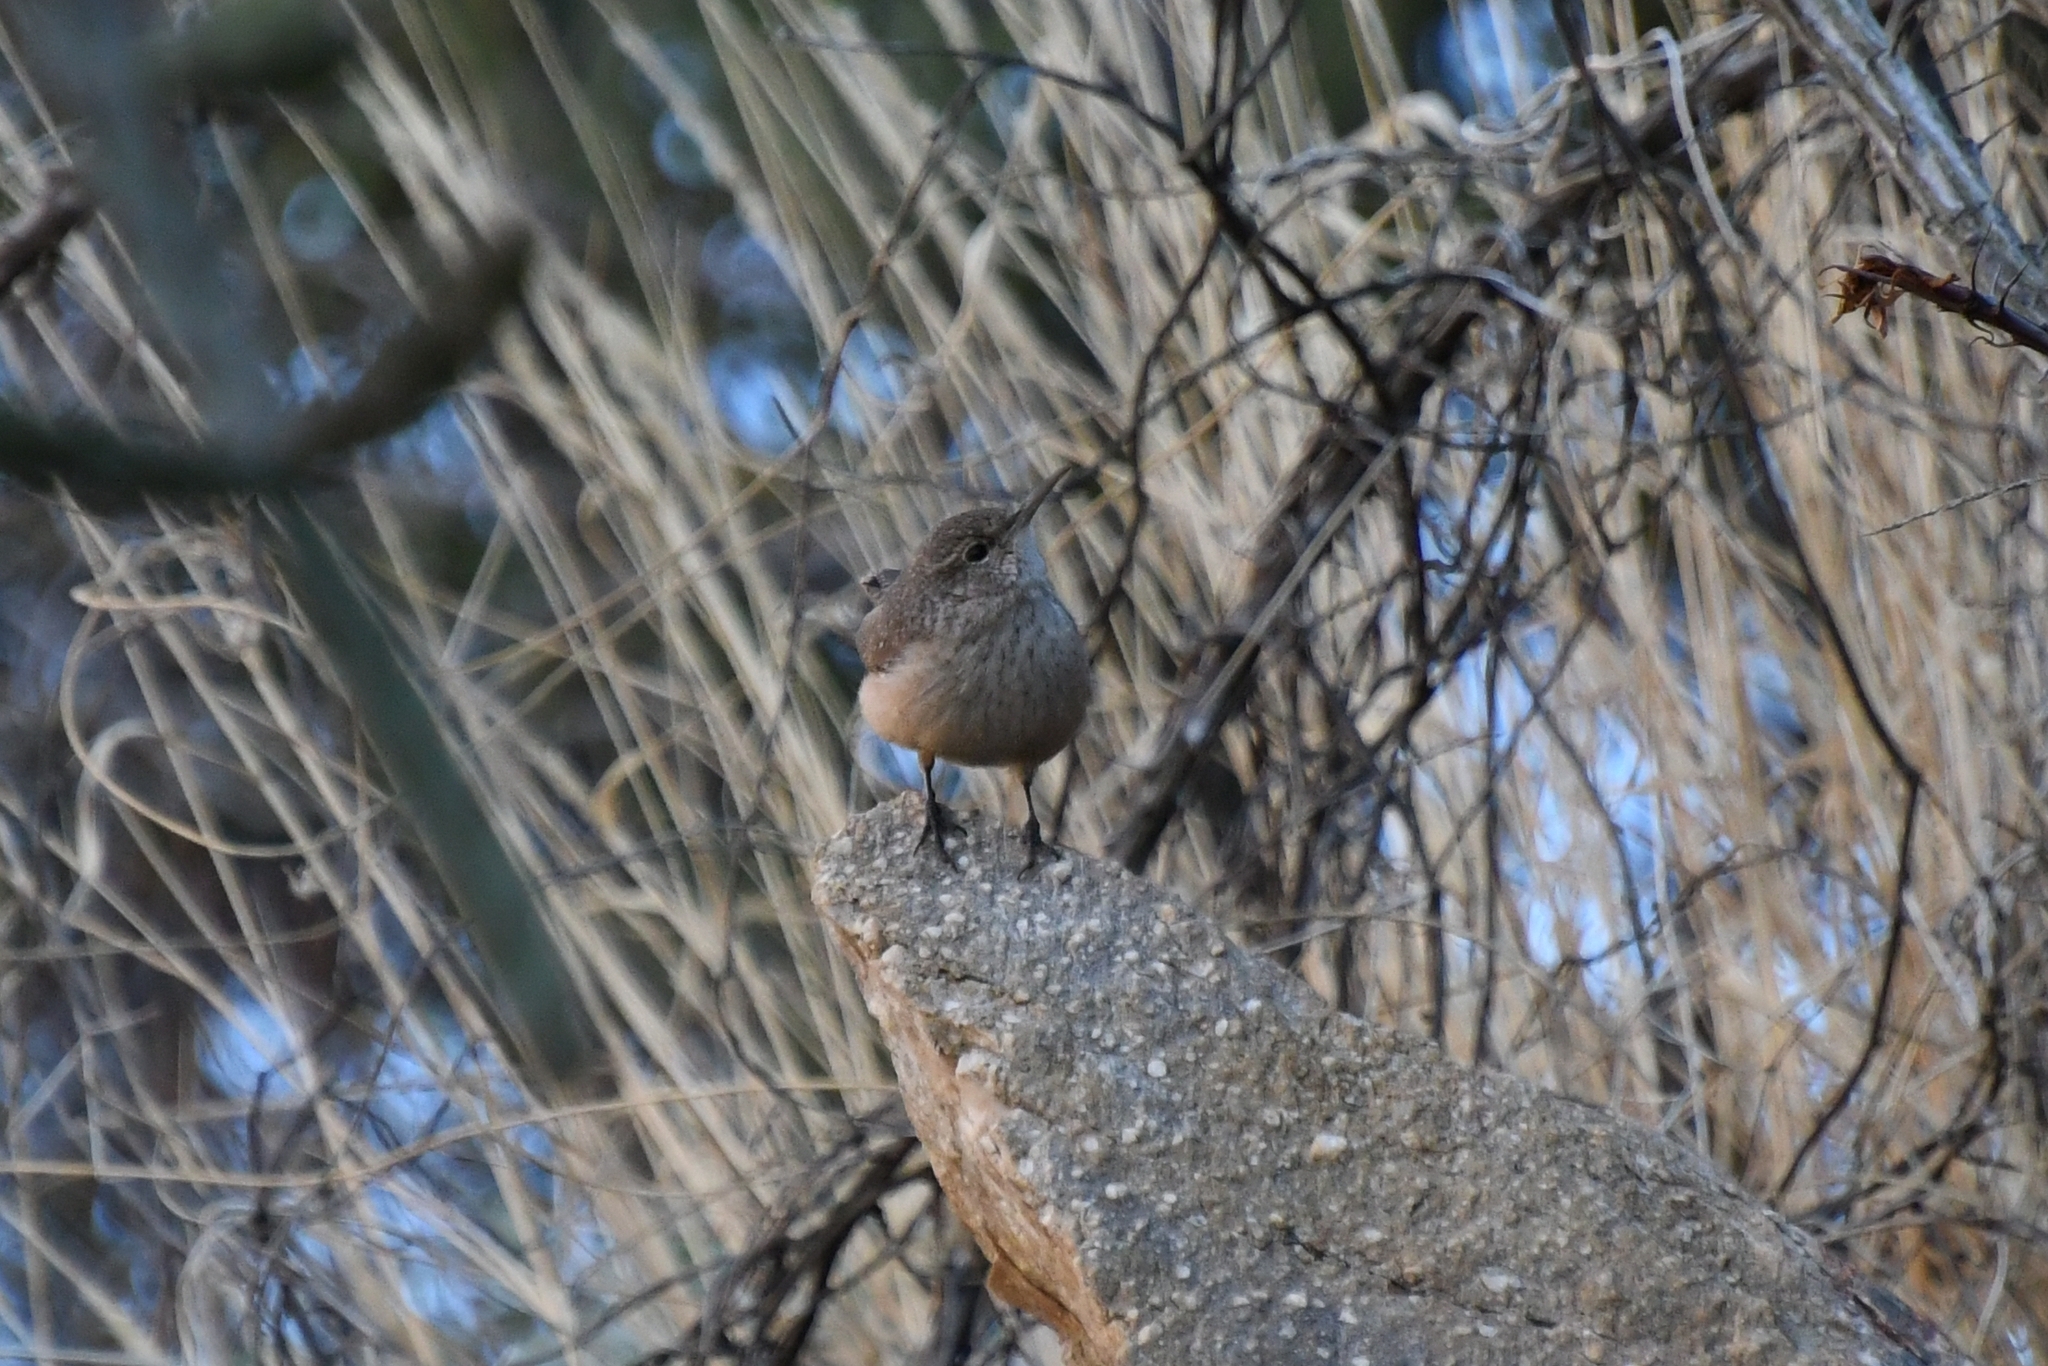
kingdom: Animalia
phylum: Chordata
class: Aves
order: Passeriformes
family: Troglodytidae
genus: Salpinctes
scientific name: Salpinctes obsoletus
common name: Rock wren
